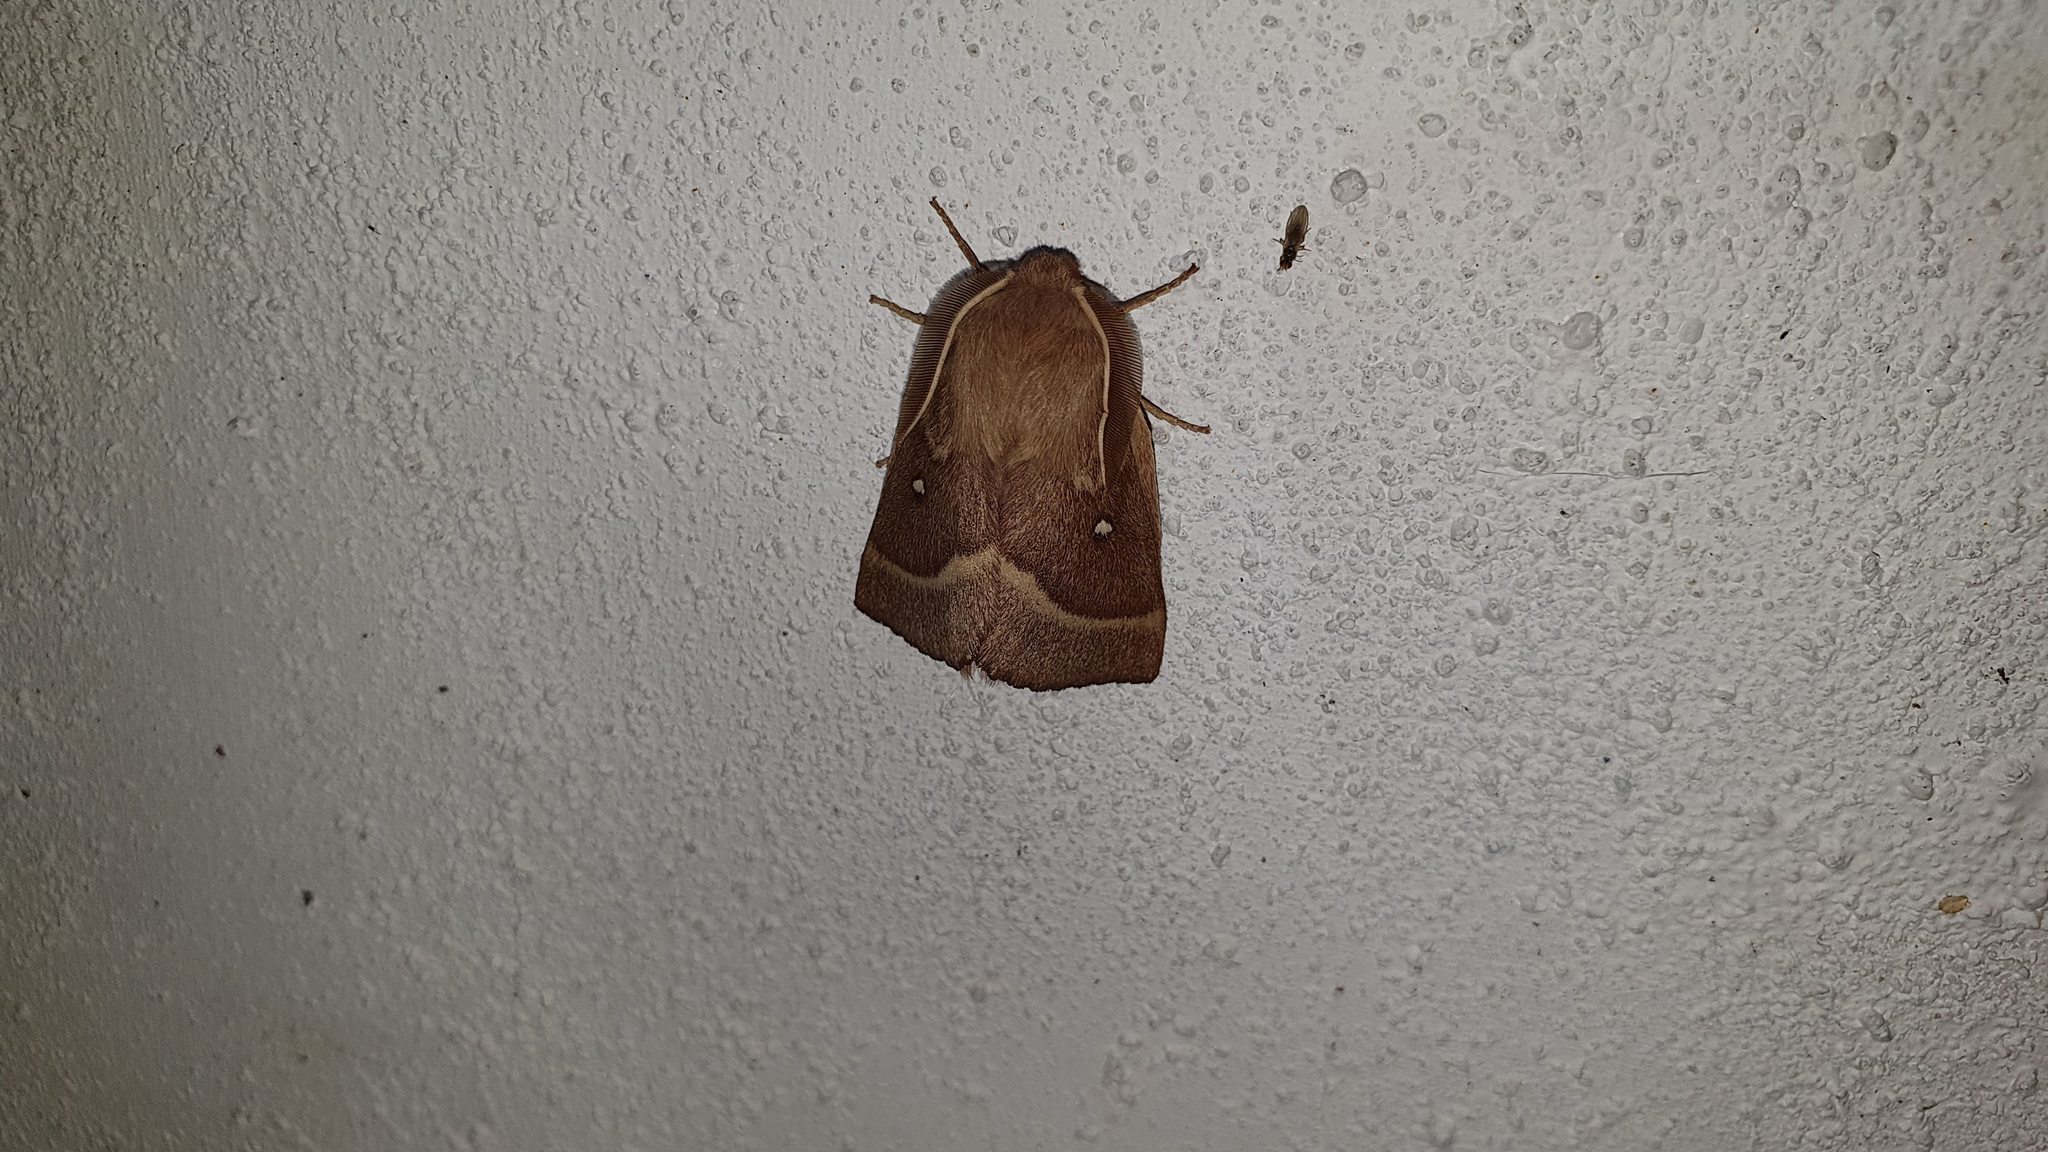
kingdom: Animalia
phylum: Arthropoda
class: Insecta
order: Lepidoptera
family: Lasiocampidae
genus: Lasiocampa
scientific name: Lasiocampa trifolii
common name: Grass eggar
